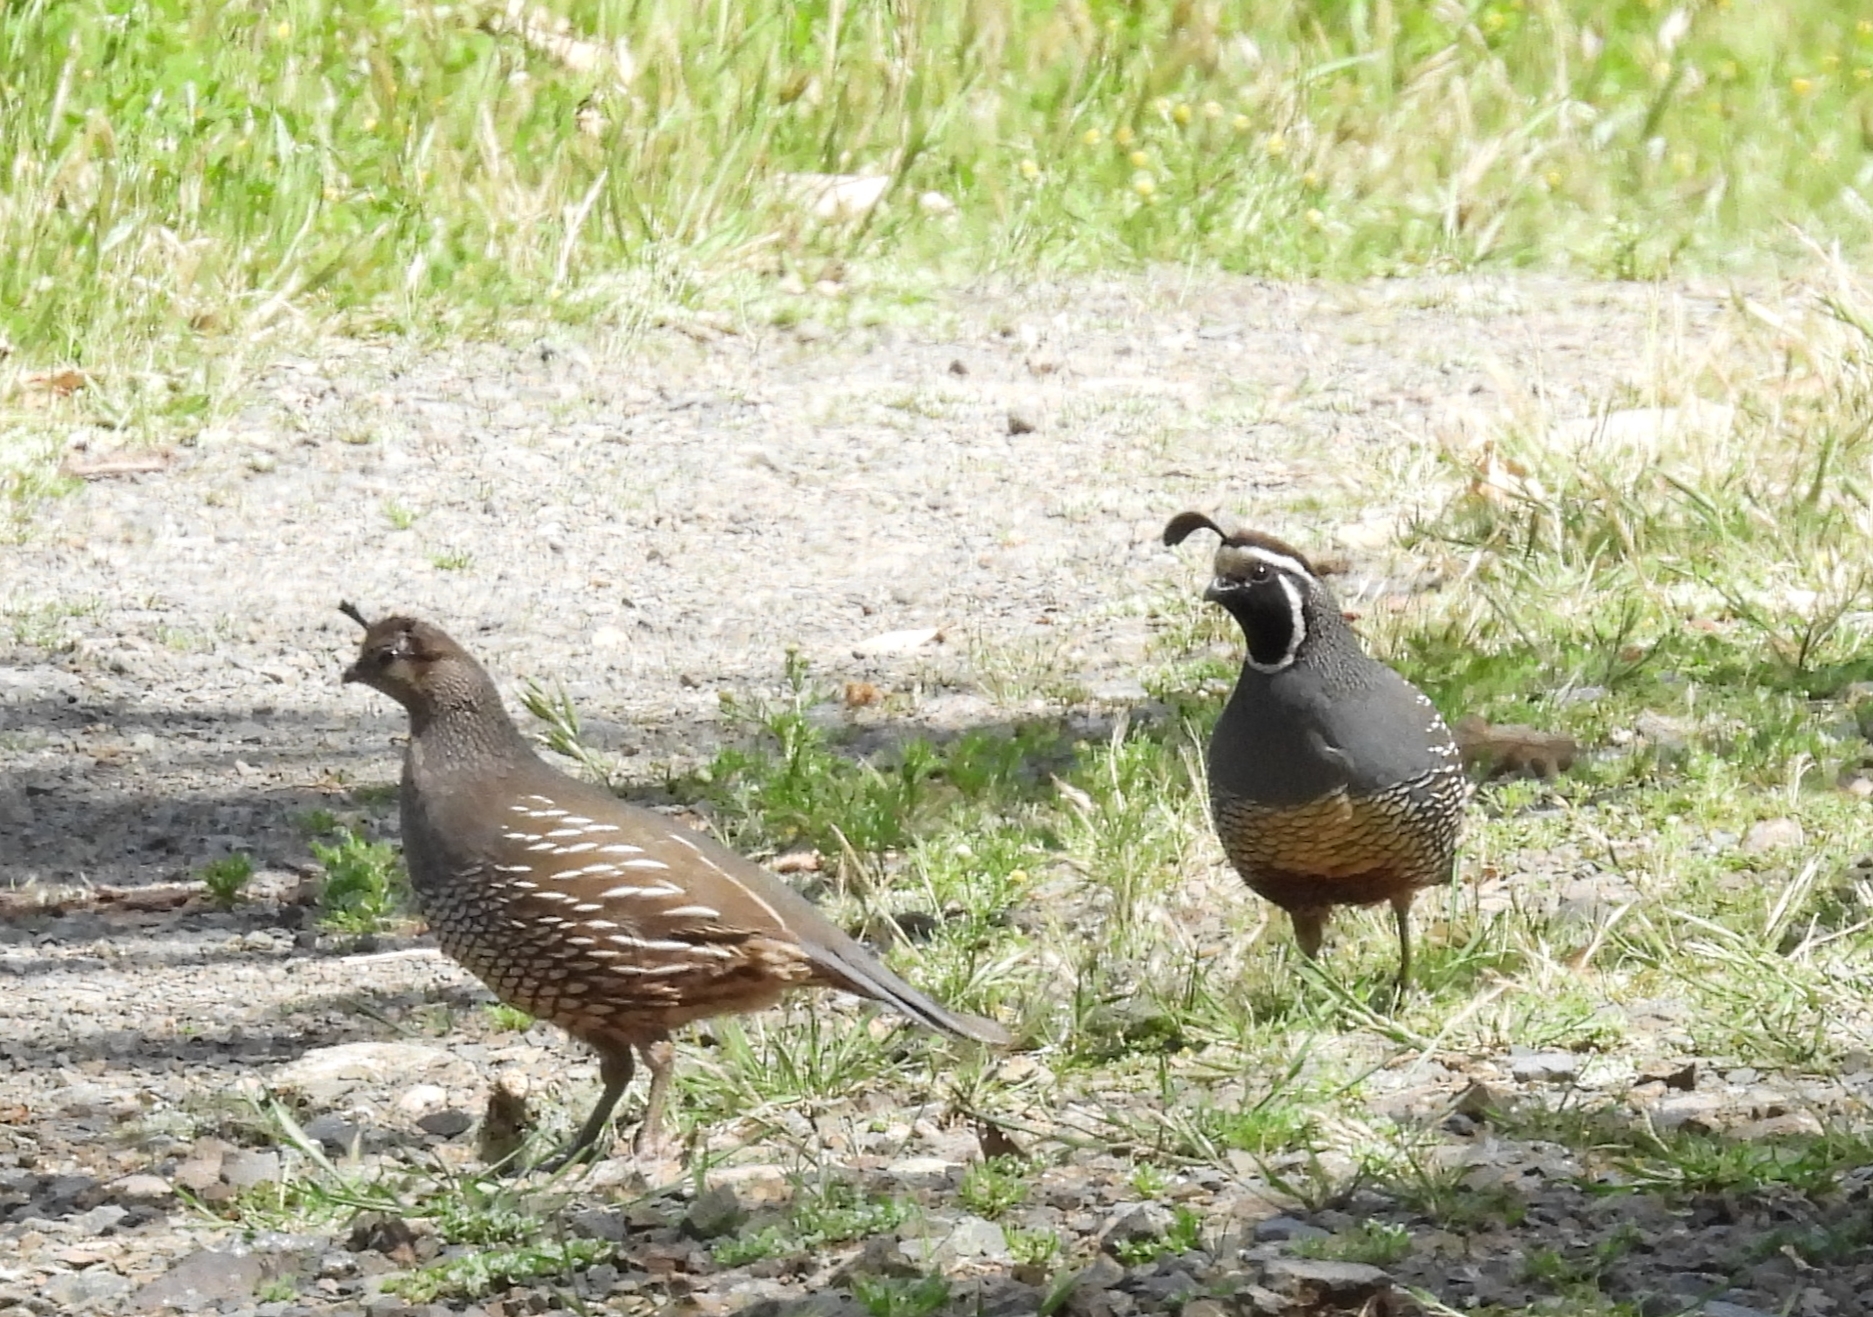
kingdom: Animalia
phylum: Chordata
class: Aves
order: Galliformes
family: Odontophoridae
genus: Callipepla
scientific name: Callipepla californica
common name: California quail
